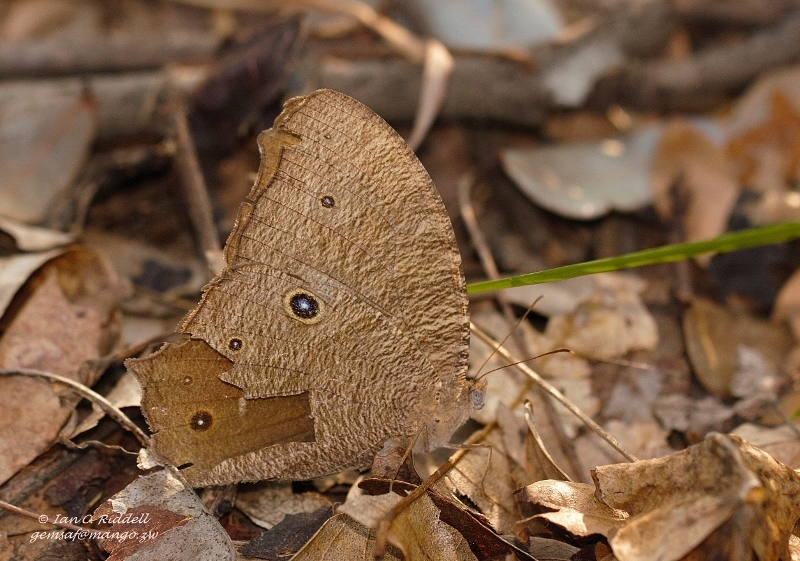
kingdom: Animalia
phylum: Arthropoda
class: Insecta
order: Lepidoptera
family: Nymphalidae
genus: Melanitis
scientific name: Melanitis leda
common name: Twilight brown
